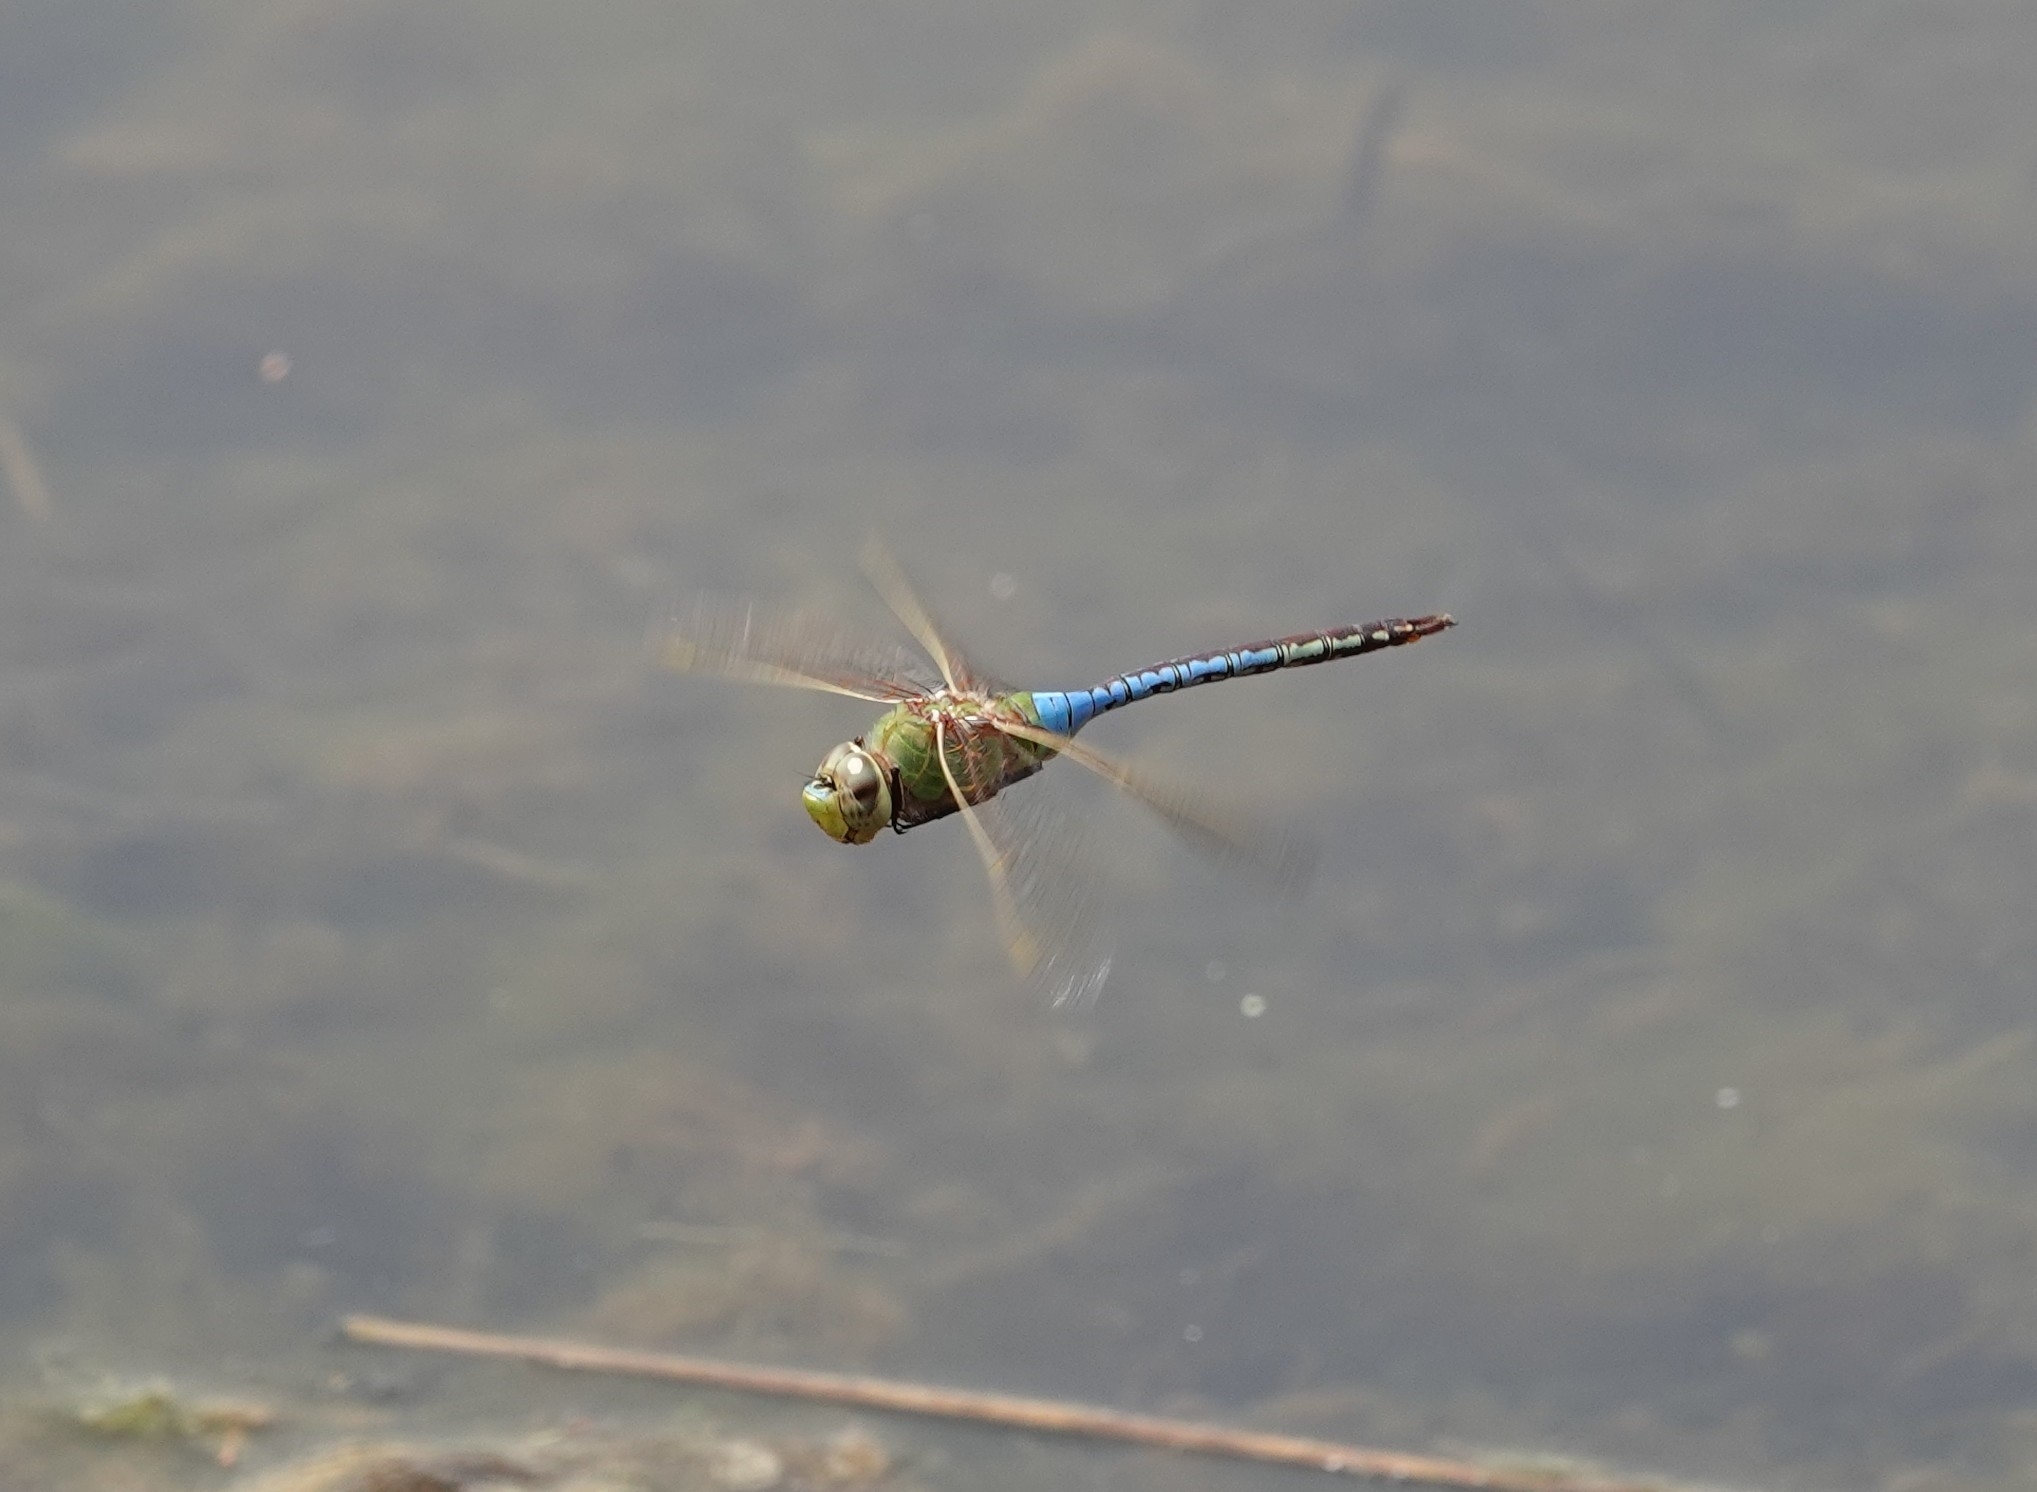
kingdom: Animalia
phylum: Arthropoda
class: Insecta
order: Odonata
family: Aeshnidae
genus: Anax
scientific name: Anax junius
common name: Common green darner
